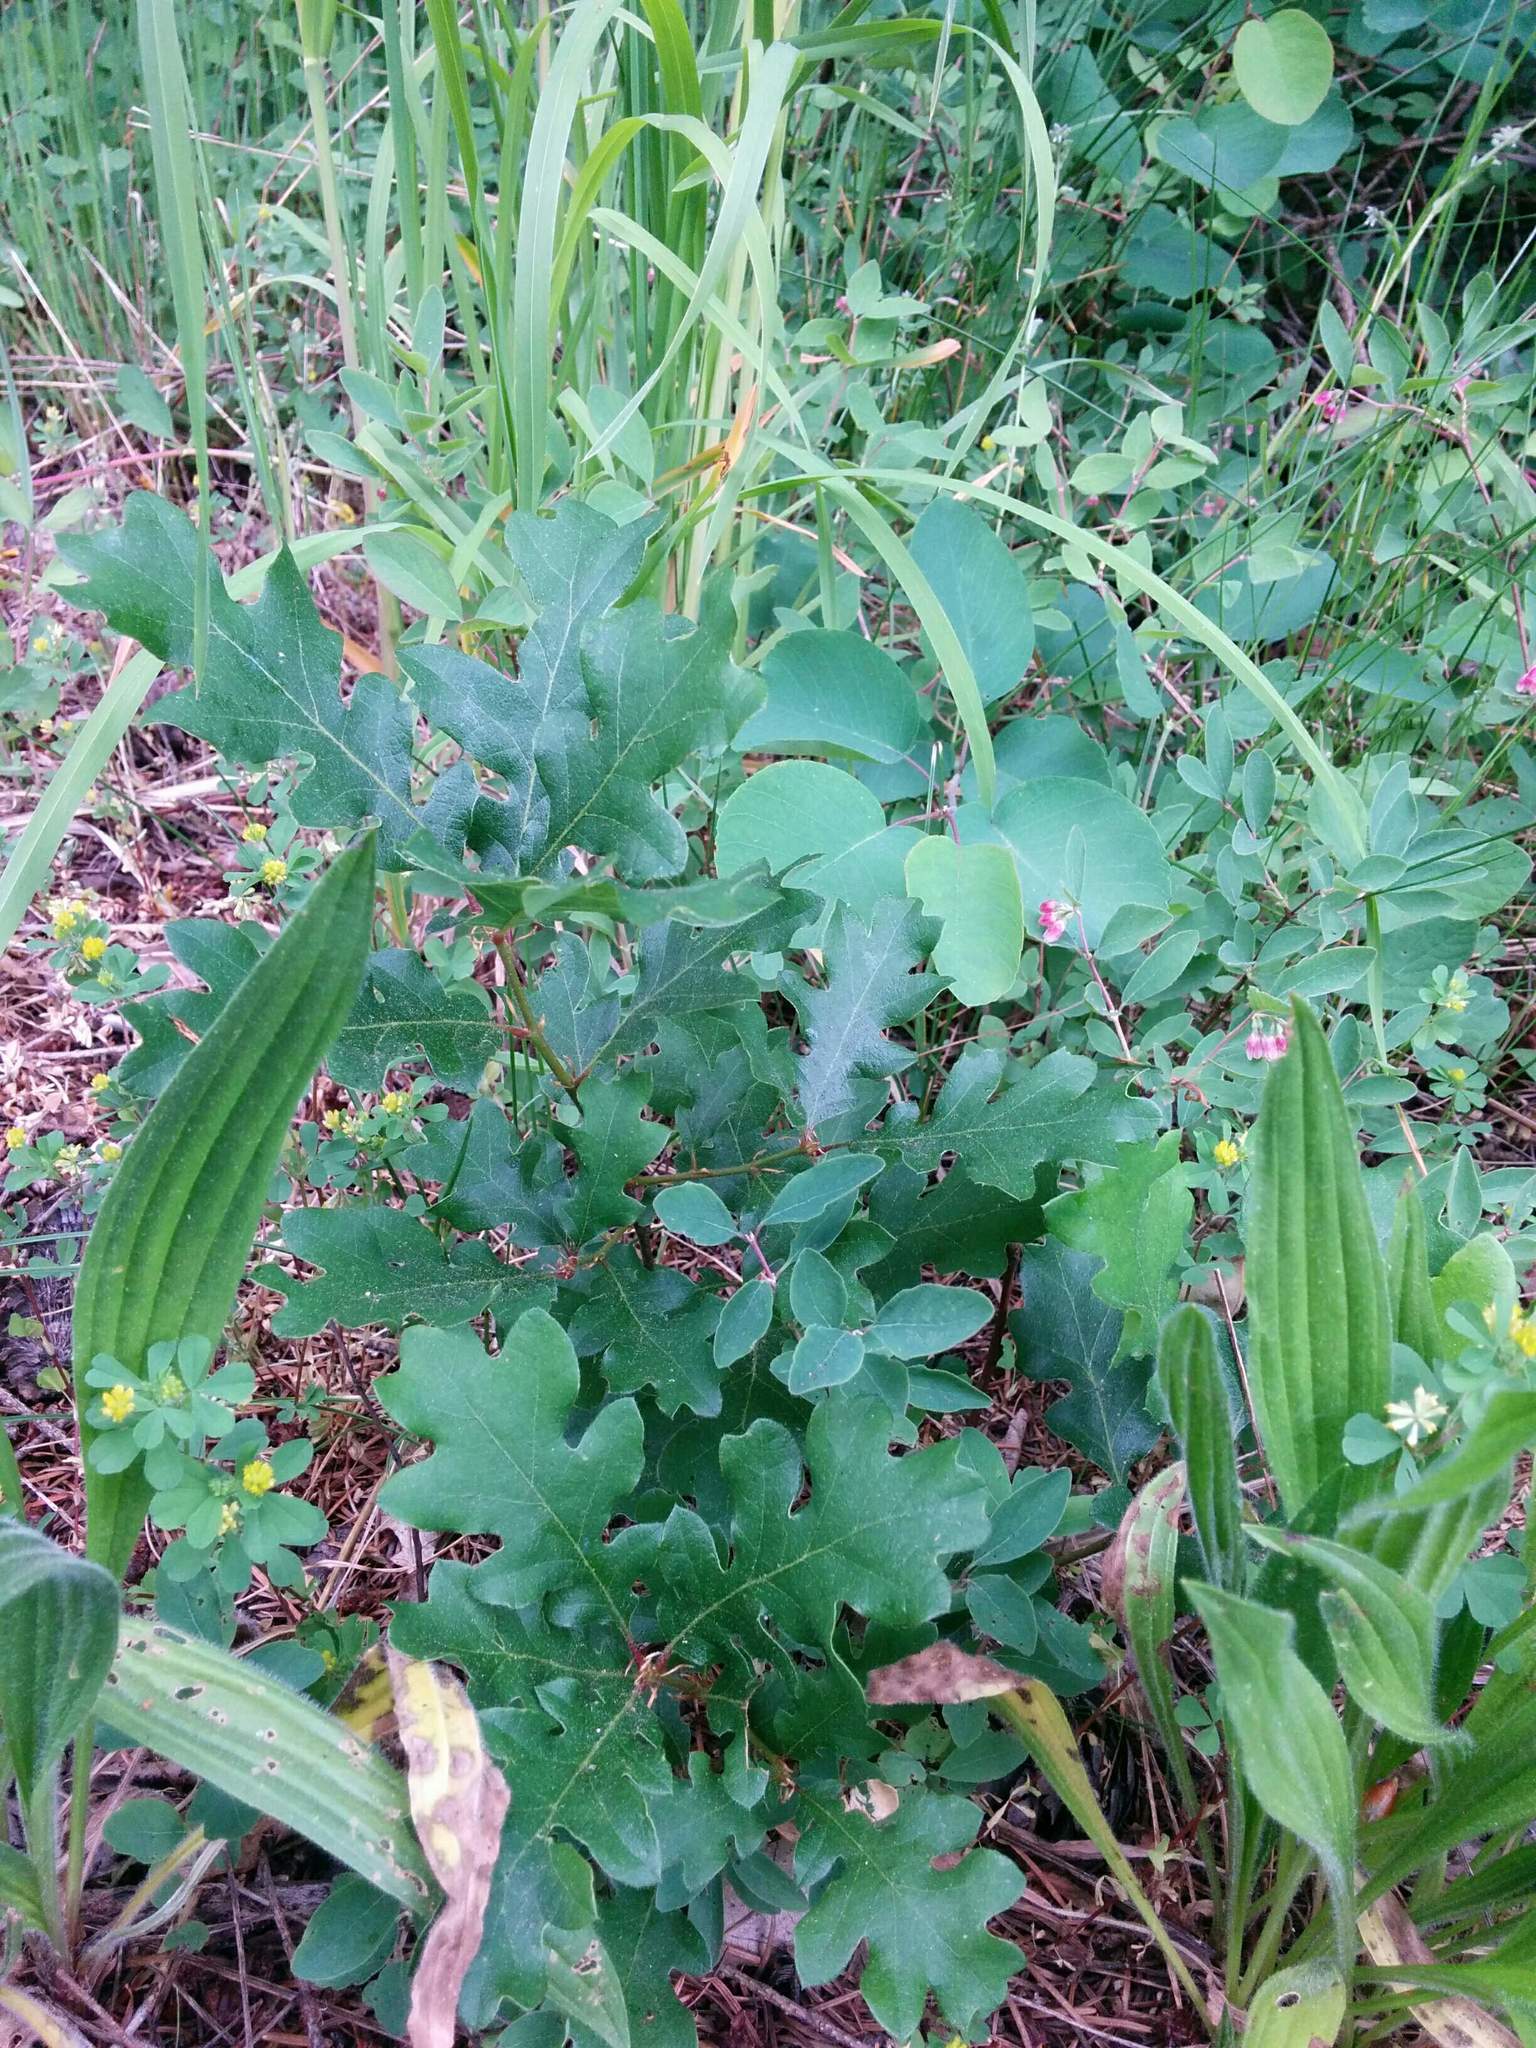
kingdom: Plantae
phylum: Tracheophyta
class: Magnoliopsida
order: Fagales
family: Fagaceae
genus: Quercus
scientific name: Quercus garryana
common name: Garry oak
